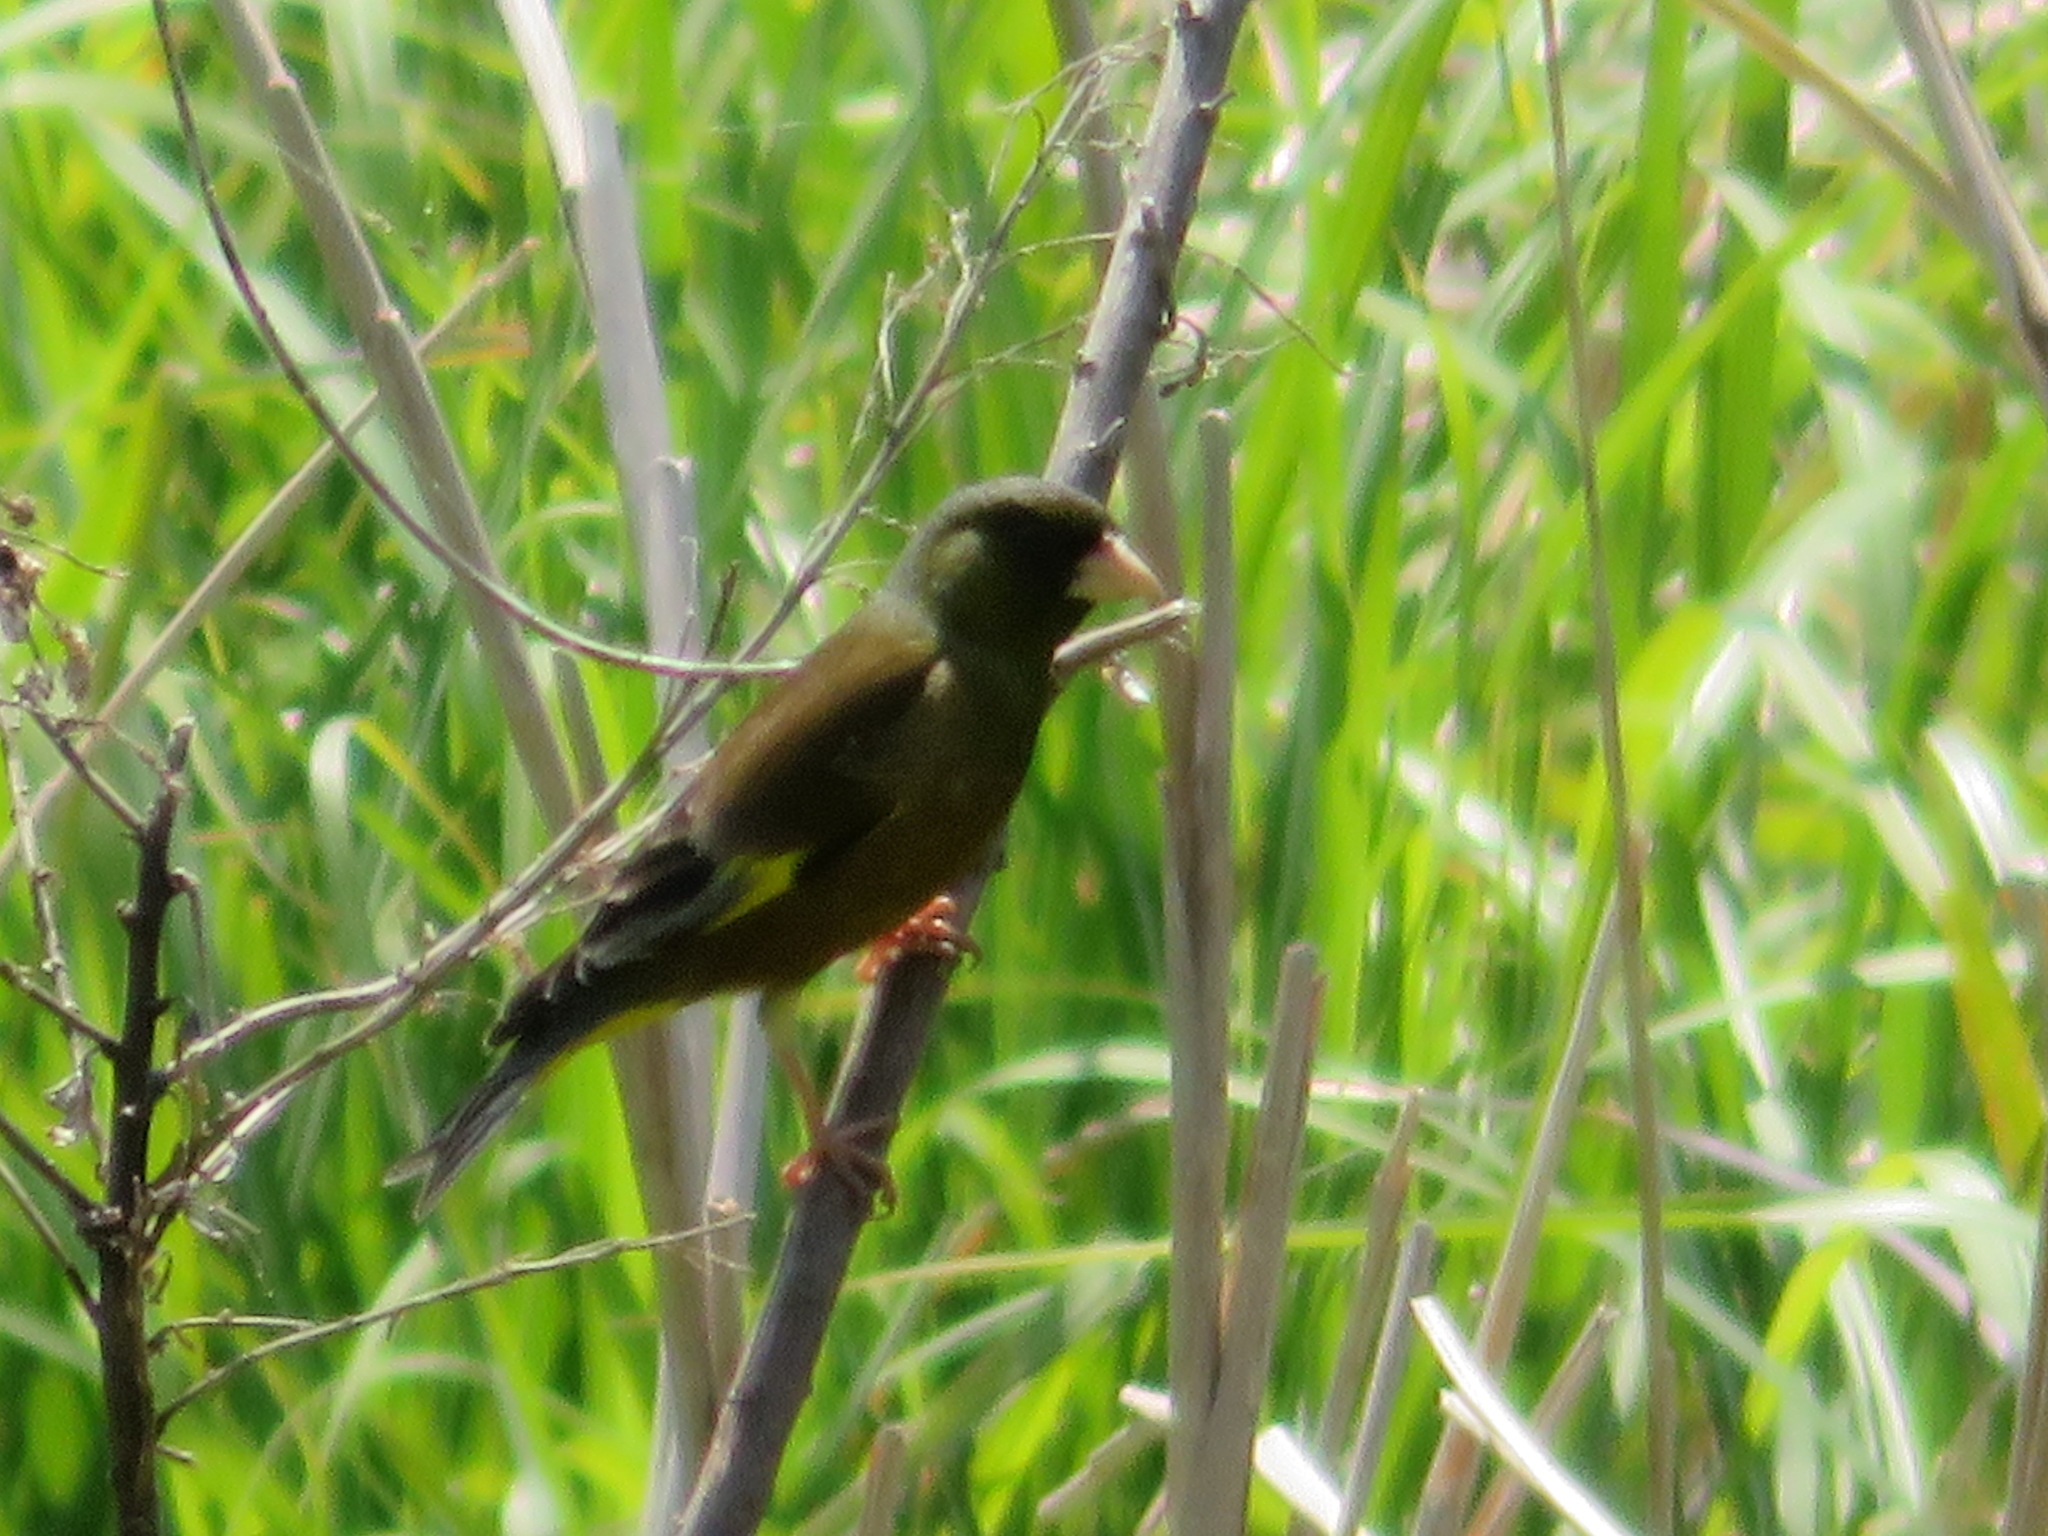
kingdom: Plantae
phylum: Tracheophyta
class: Liliopsida
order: Poales
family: Poaceae
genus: Chloris
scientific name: Chloris sinica
